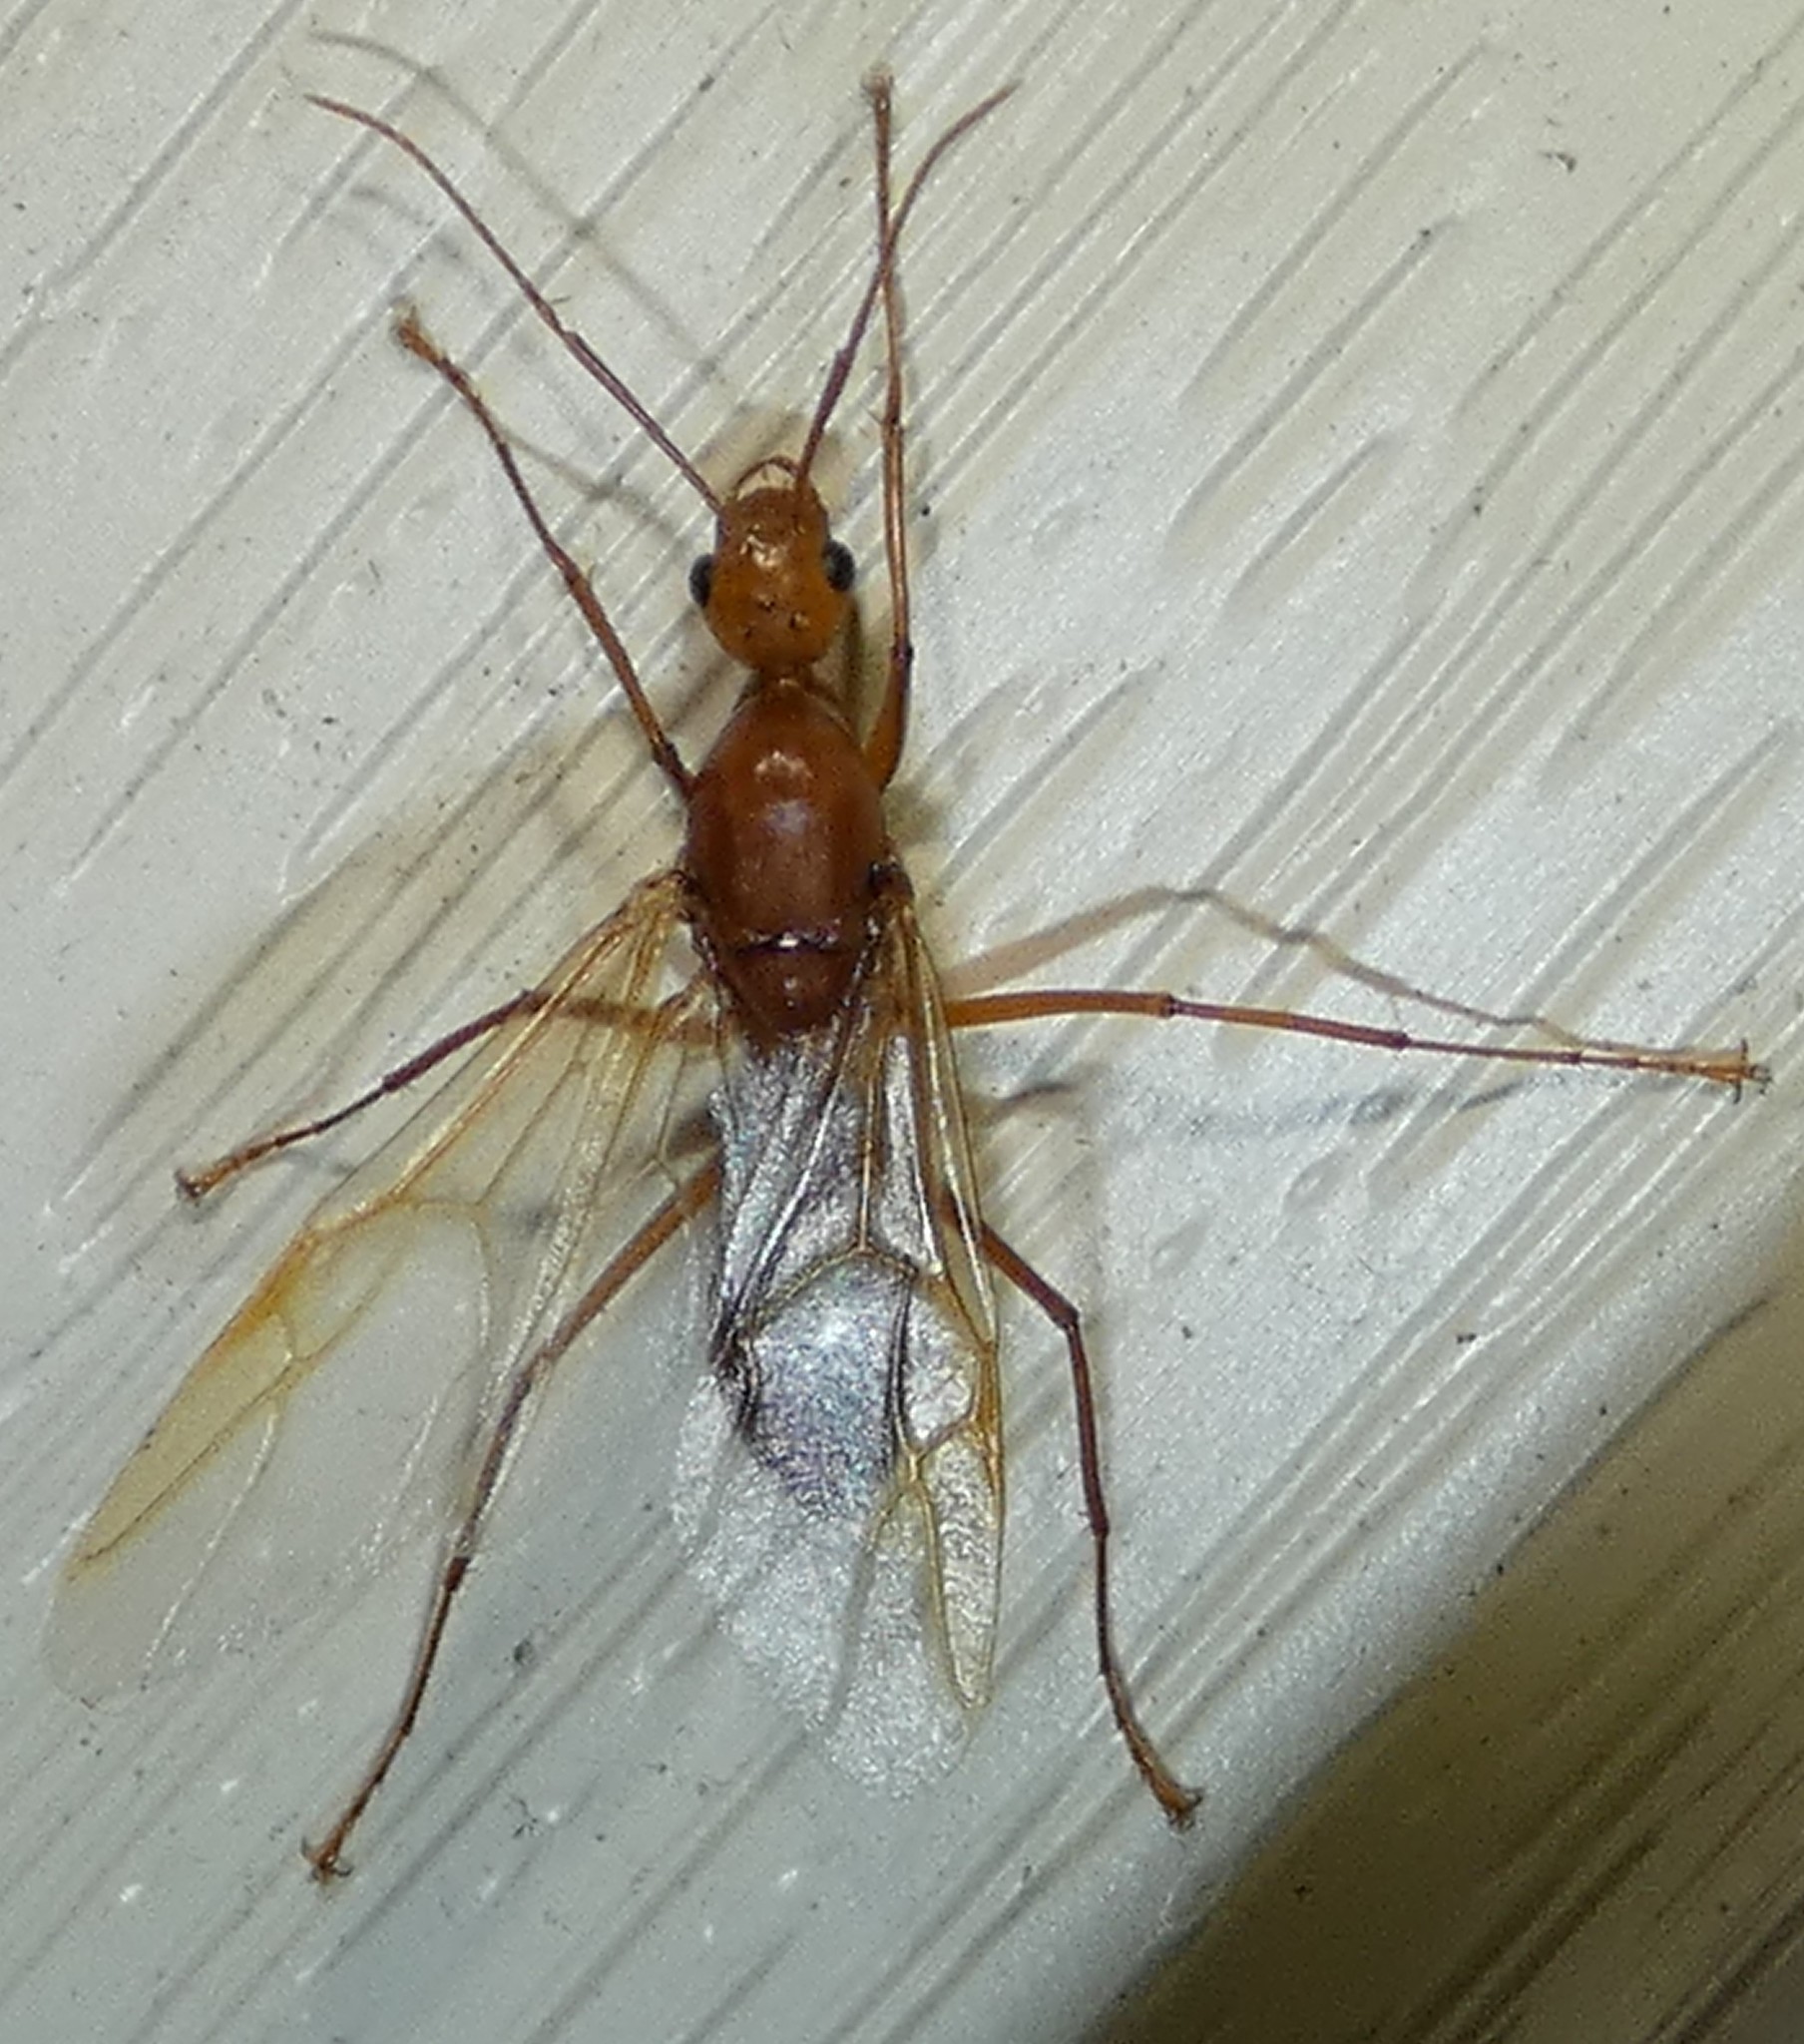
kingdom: Animalia
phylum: Arthropoda
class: Insecta
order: Hymenoptera
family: Formicidae
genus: Camponotus
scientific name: Camponotus castaneus
